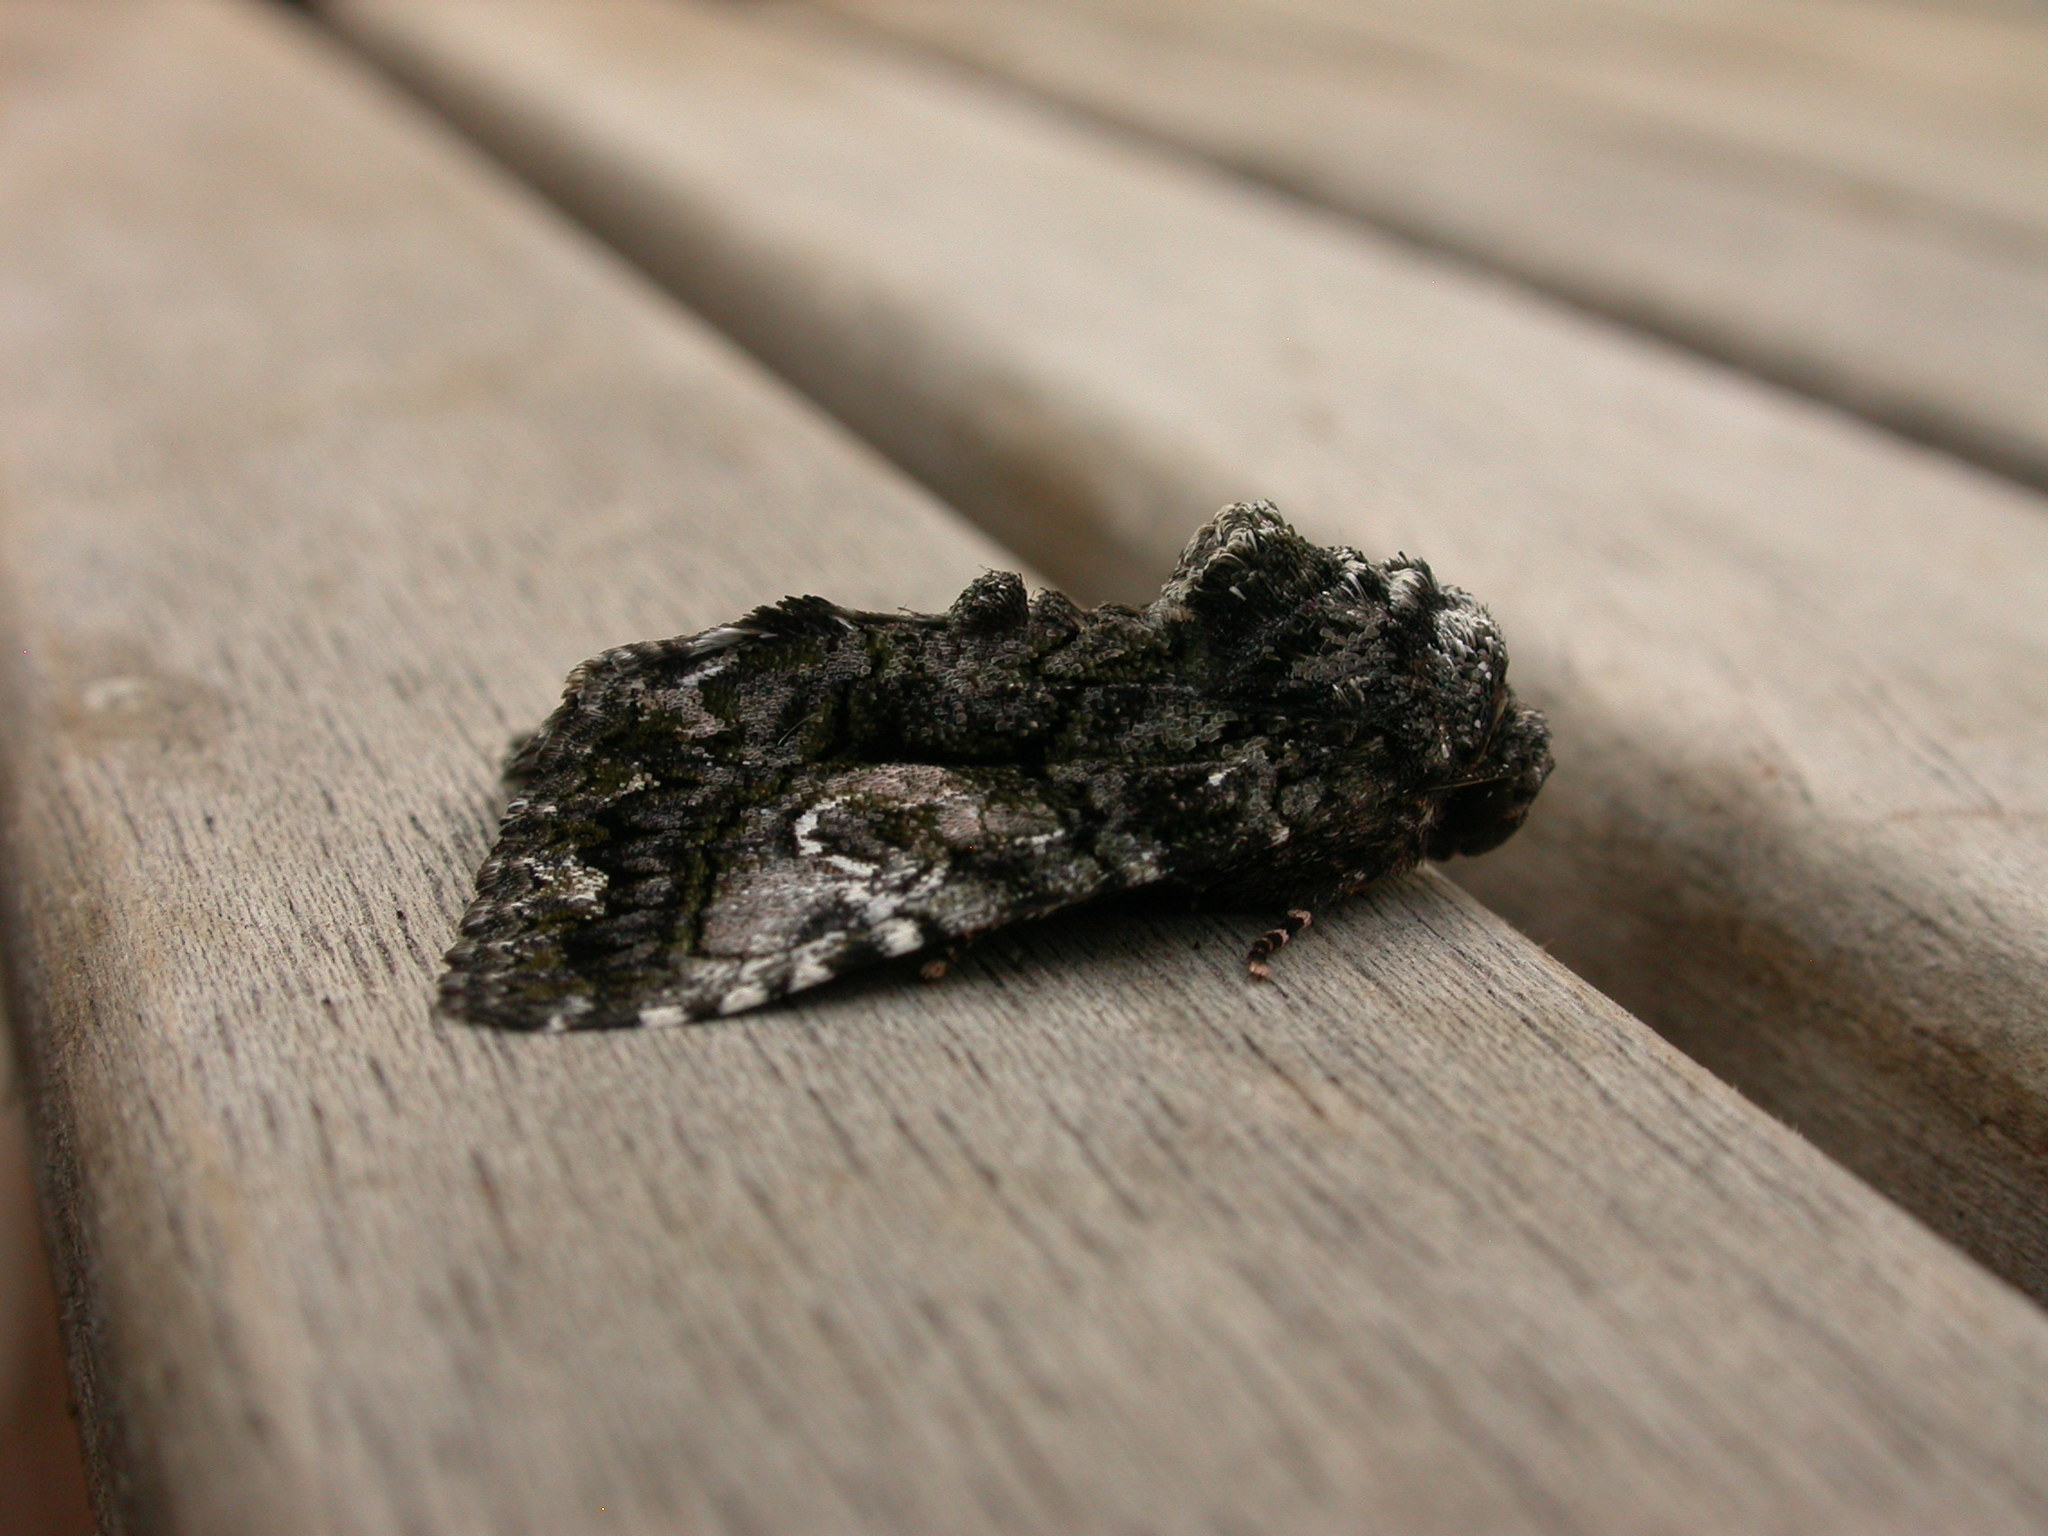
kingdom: Animalia
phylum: Arthropoda
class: Insecta
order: Lepidoptera
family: Noctuidae
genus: Aedia
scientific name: Aedia leucomelas
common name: Sorcerer
